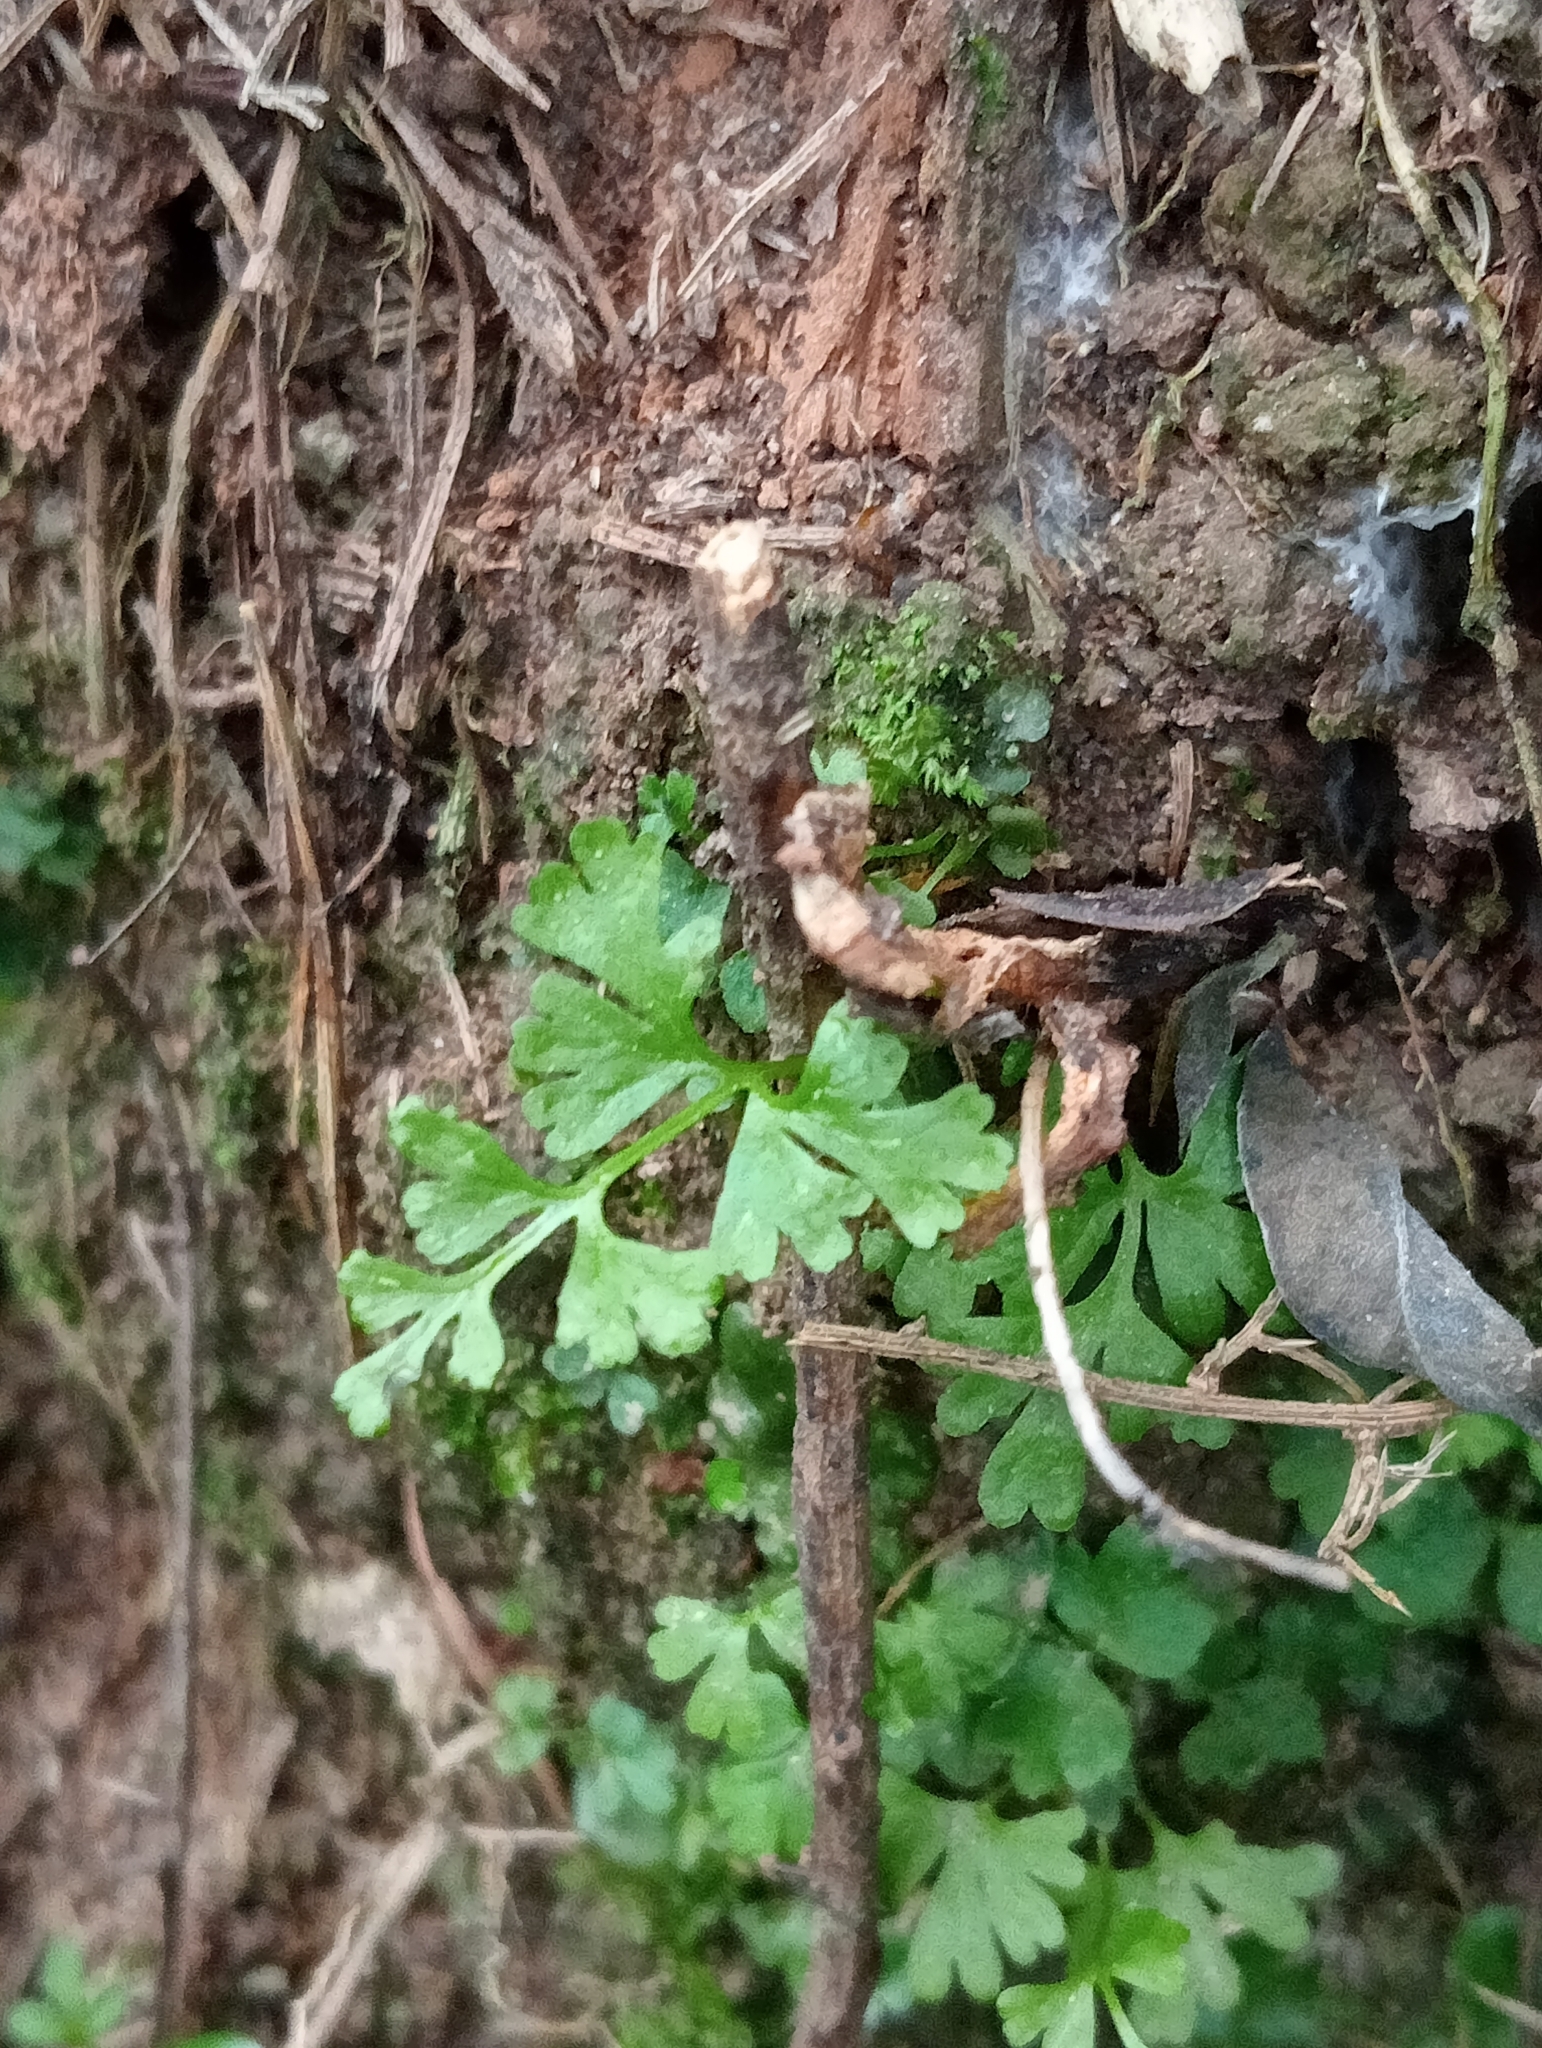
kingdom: Plantae
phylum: Tracheophyta
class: Polypodiopsida
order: Polypodiales
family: Pteridaceae
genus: Anogramma
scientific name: Anogramma leptophylla
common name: Jersey fern
